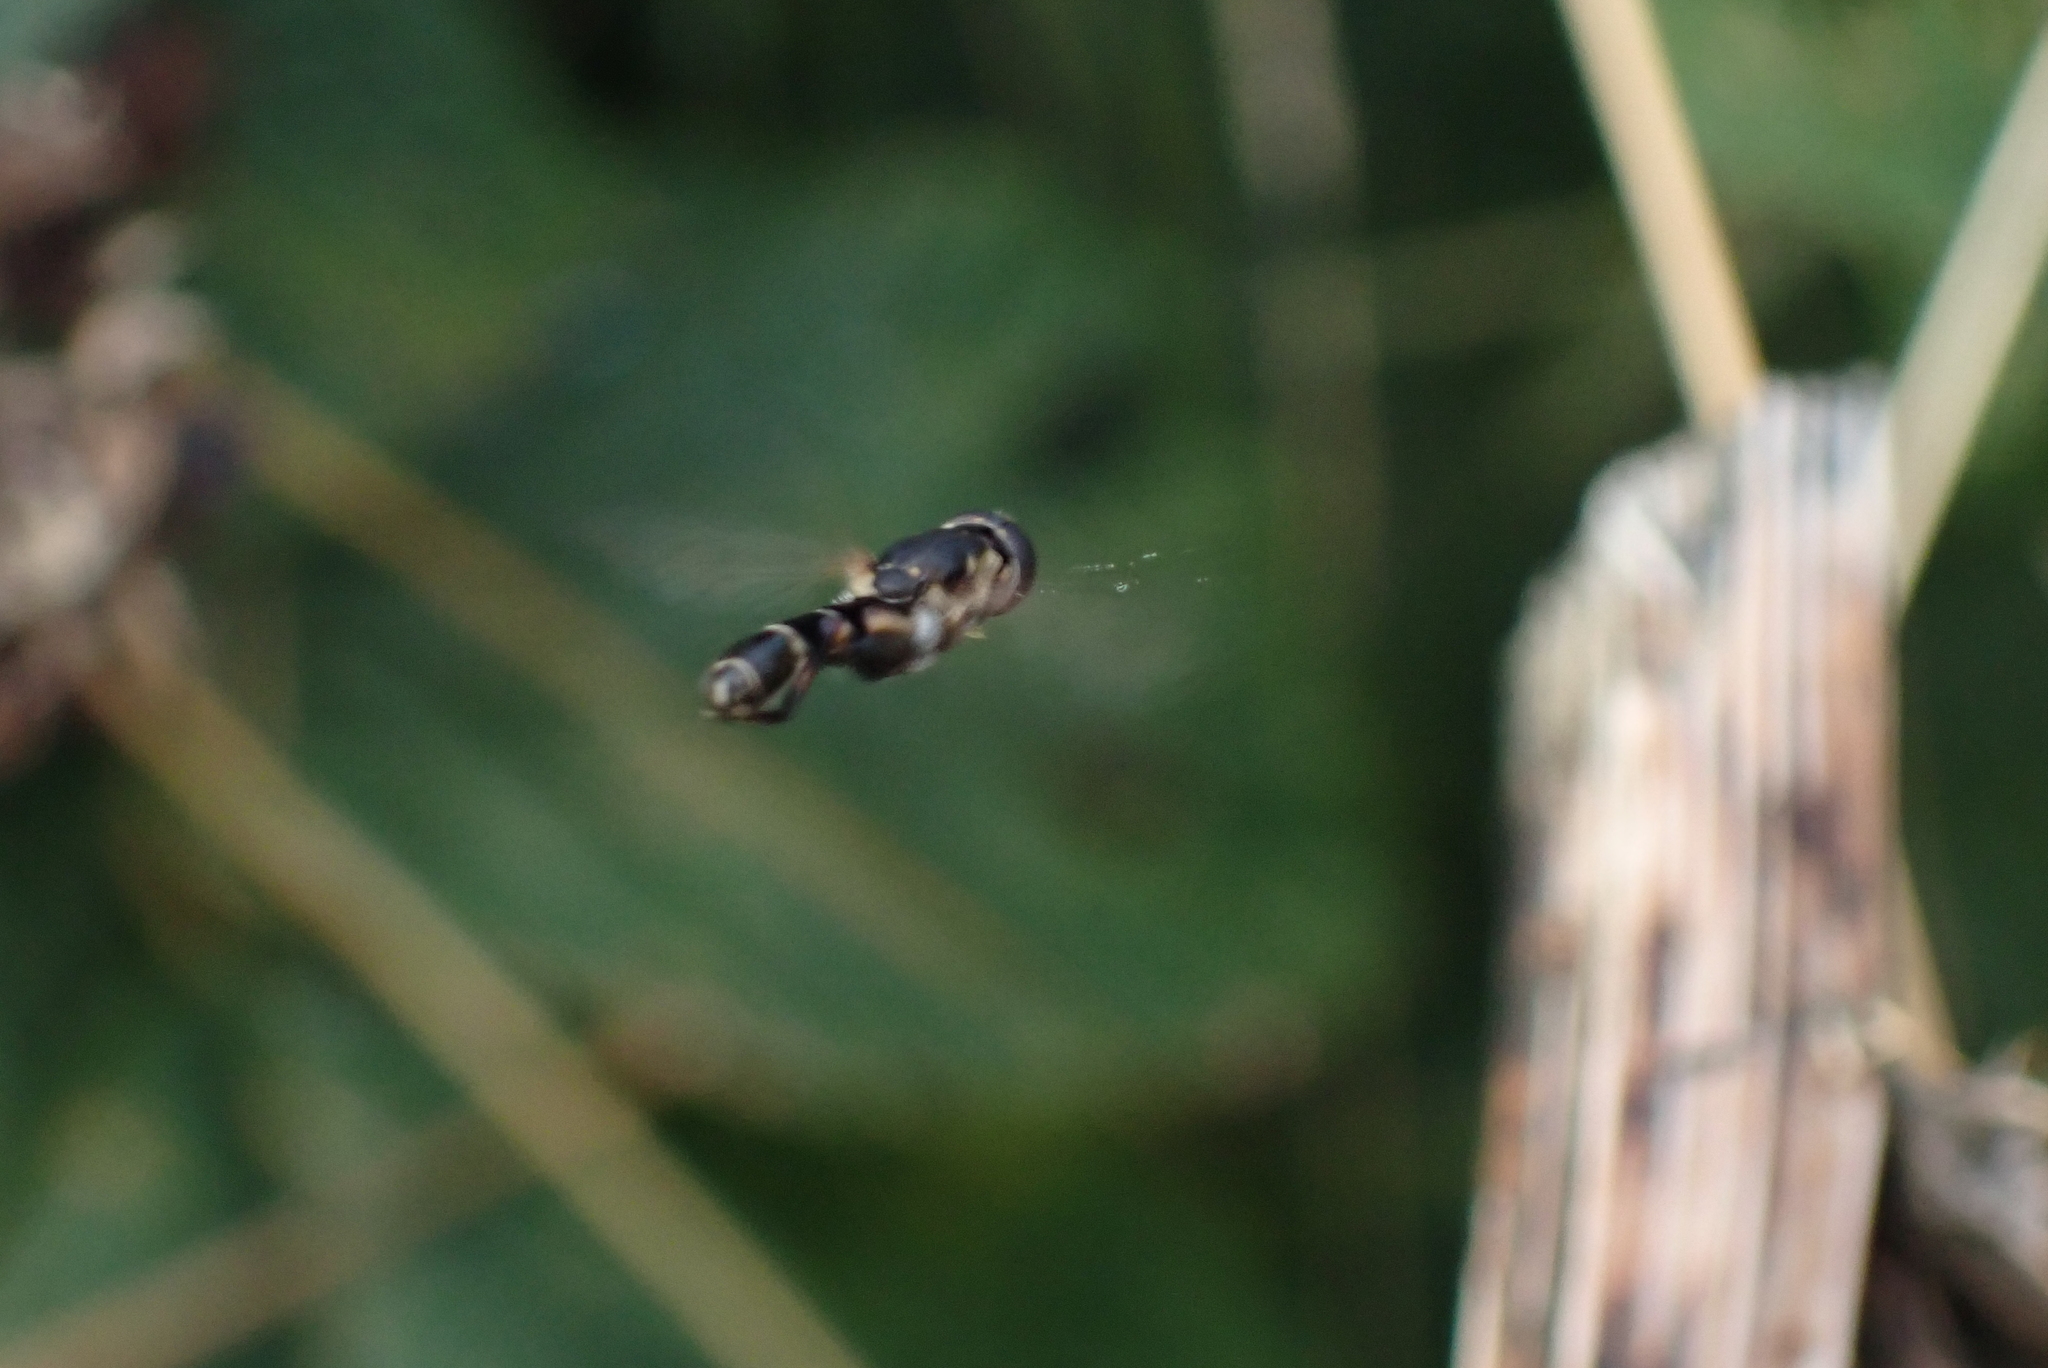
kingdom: Animalia
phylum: Arthropoda
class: Insecta
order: Diptera
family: Syrphidae
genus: Syritta
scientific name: Syritta pipiens
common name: Hover fly
